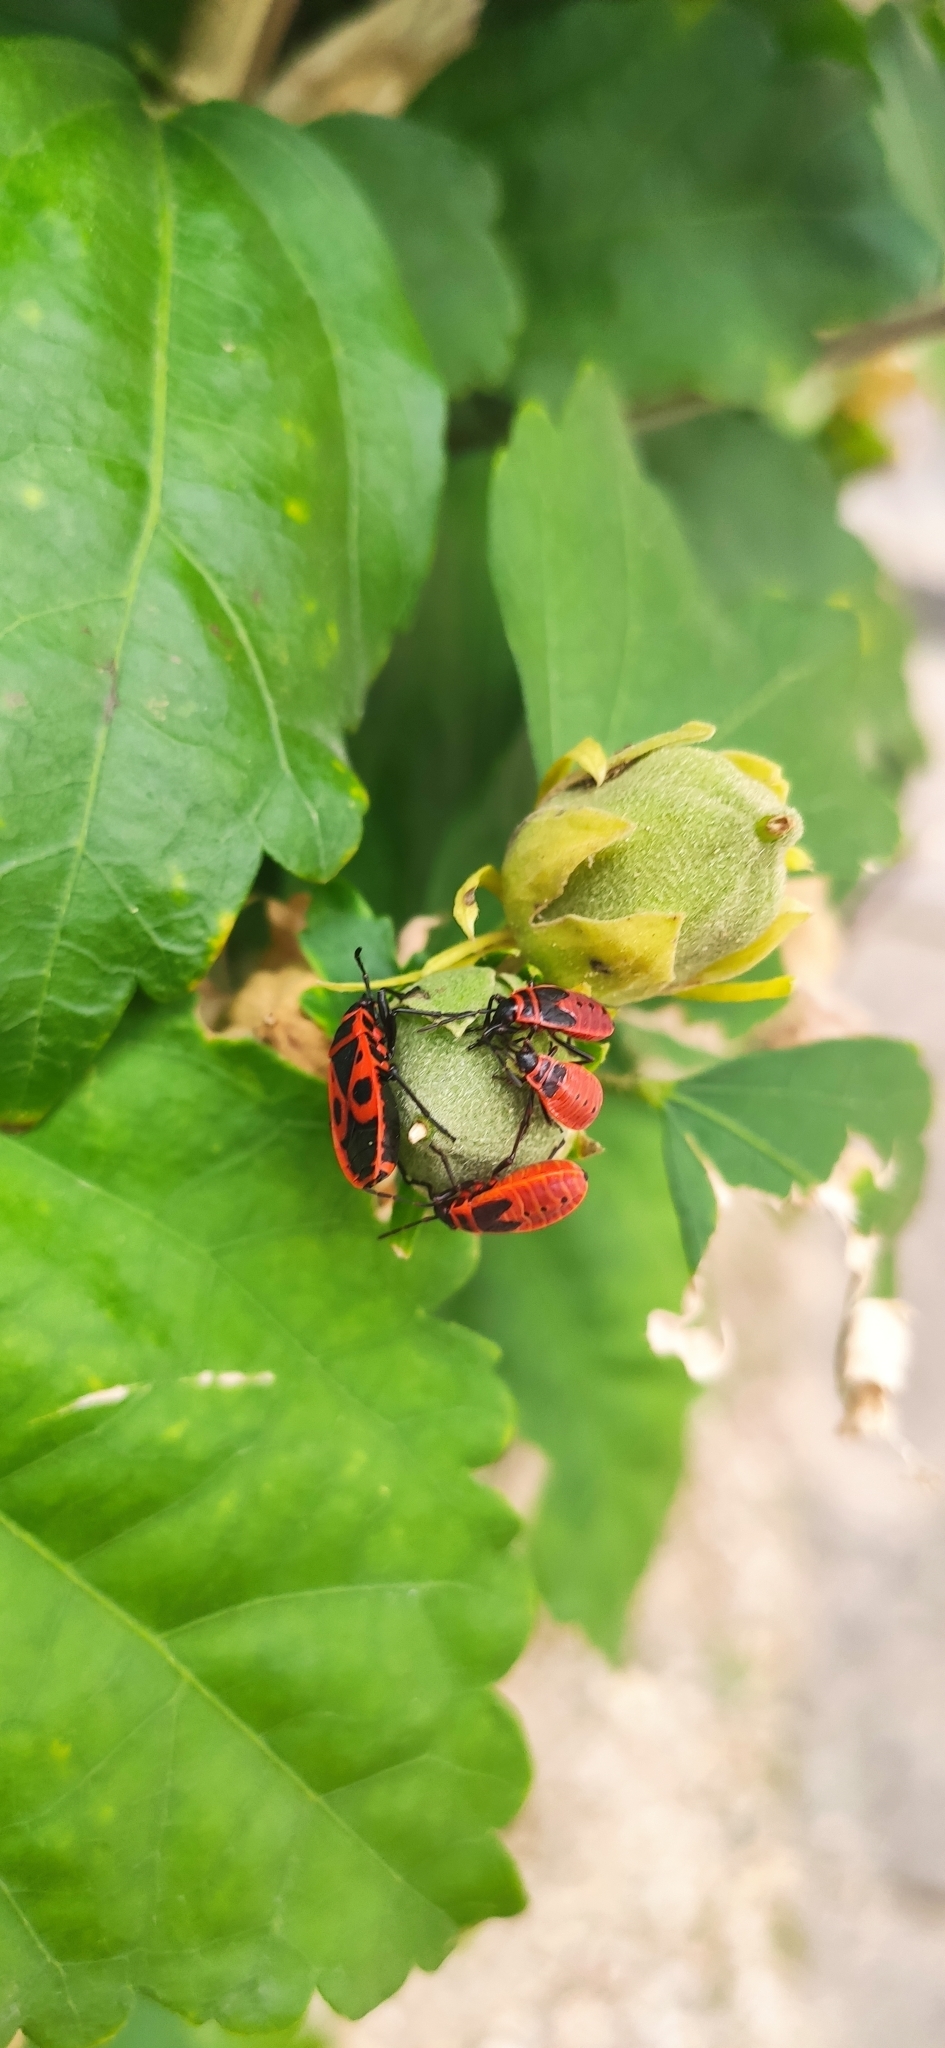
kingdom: Animalia
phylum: Arthropoda
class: Insecta
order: Hemiptera
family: Pyrrhocoridae
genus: Pyrrhocoris
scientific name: Pyrrhocoris apterus
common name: Firebug
